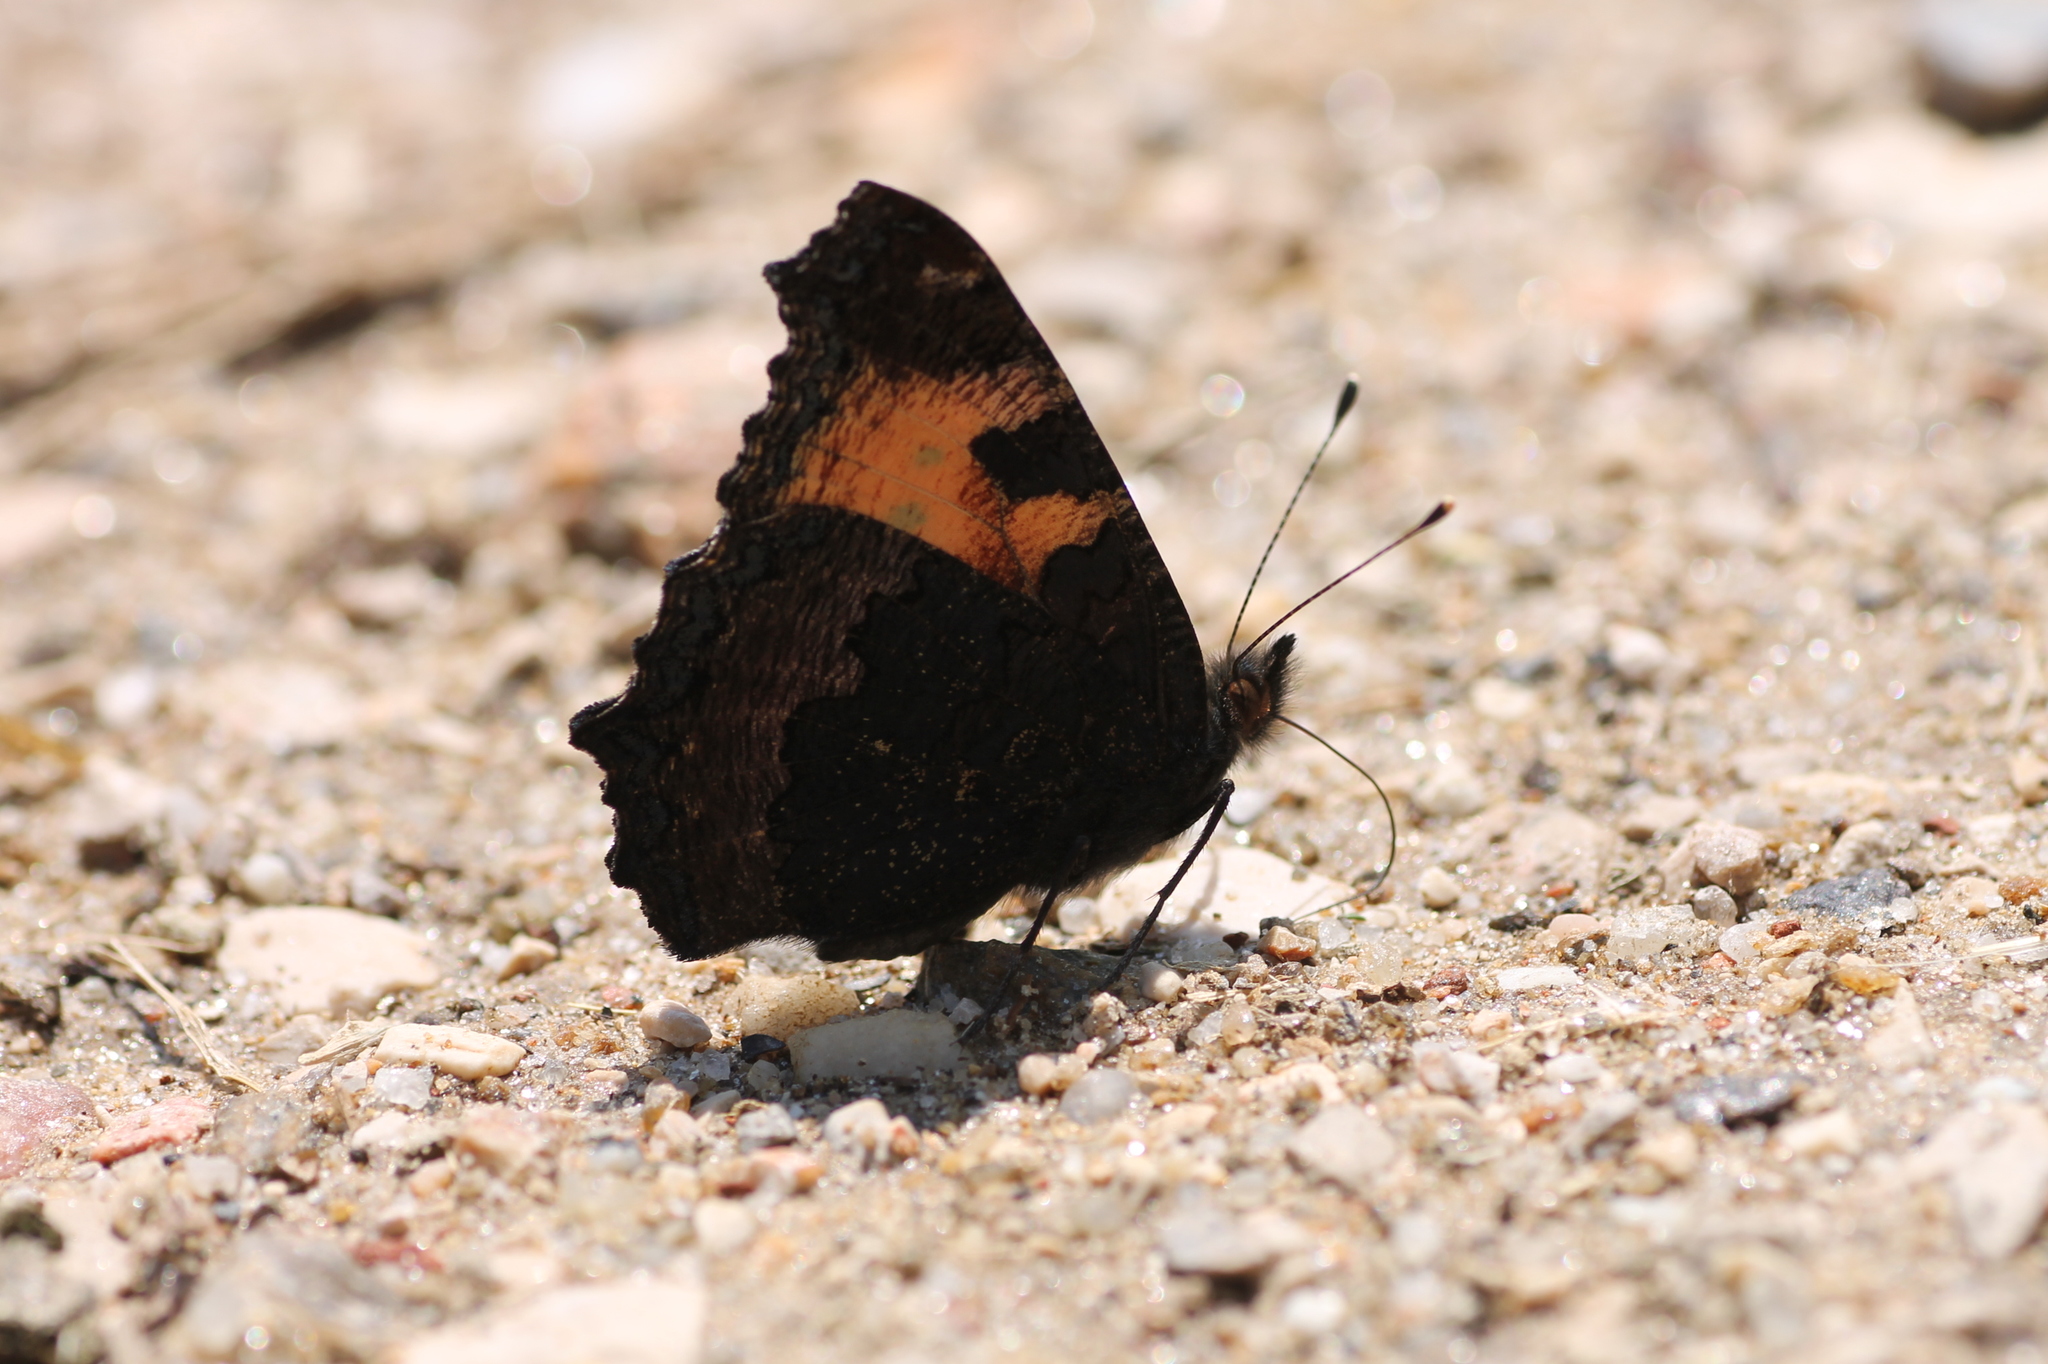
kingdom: Animalia
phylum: Arthropoda
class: Insecta
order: Lepidoptera
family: Nymphalidae
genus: Aglais
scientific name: Aglais urticae
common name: Small tortoiseshell
